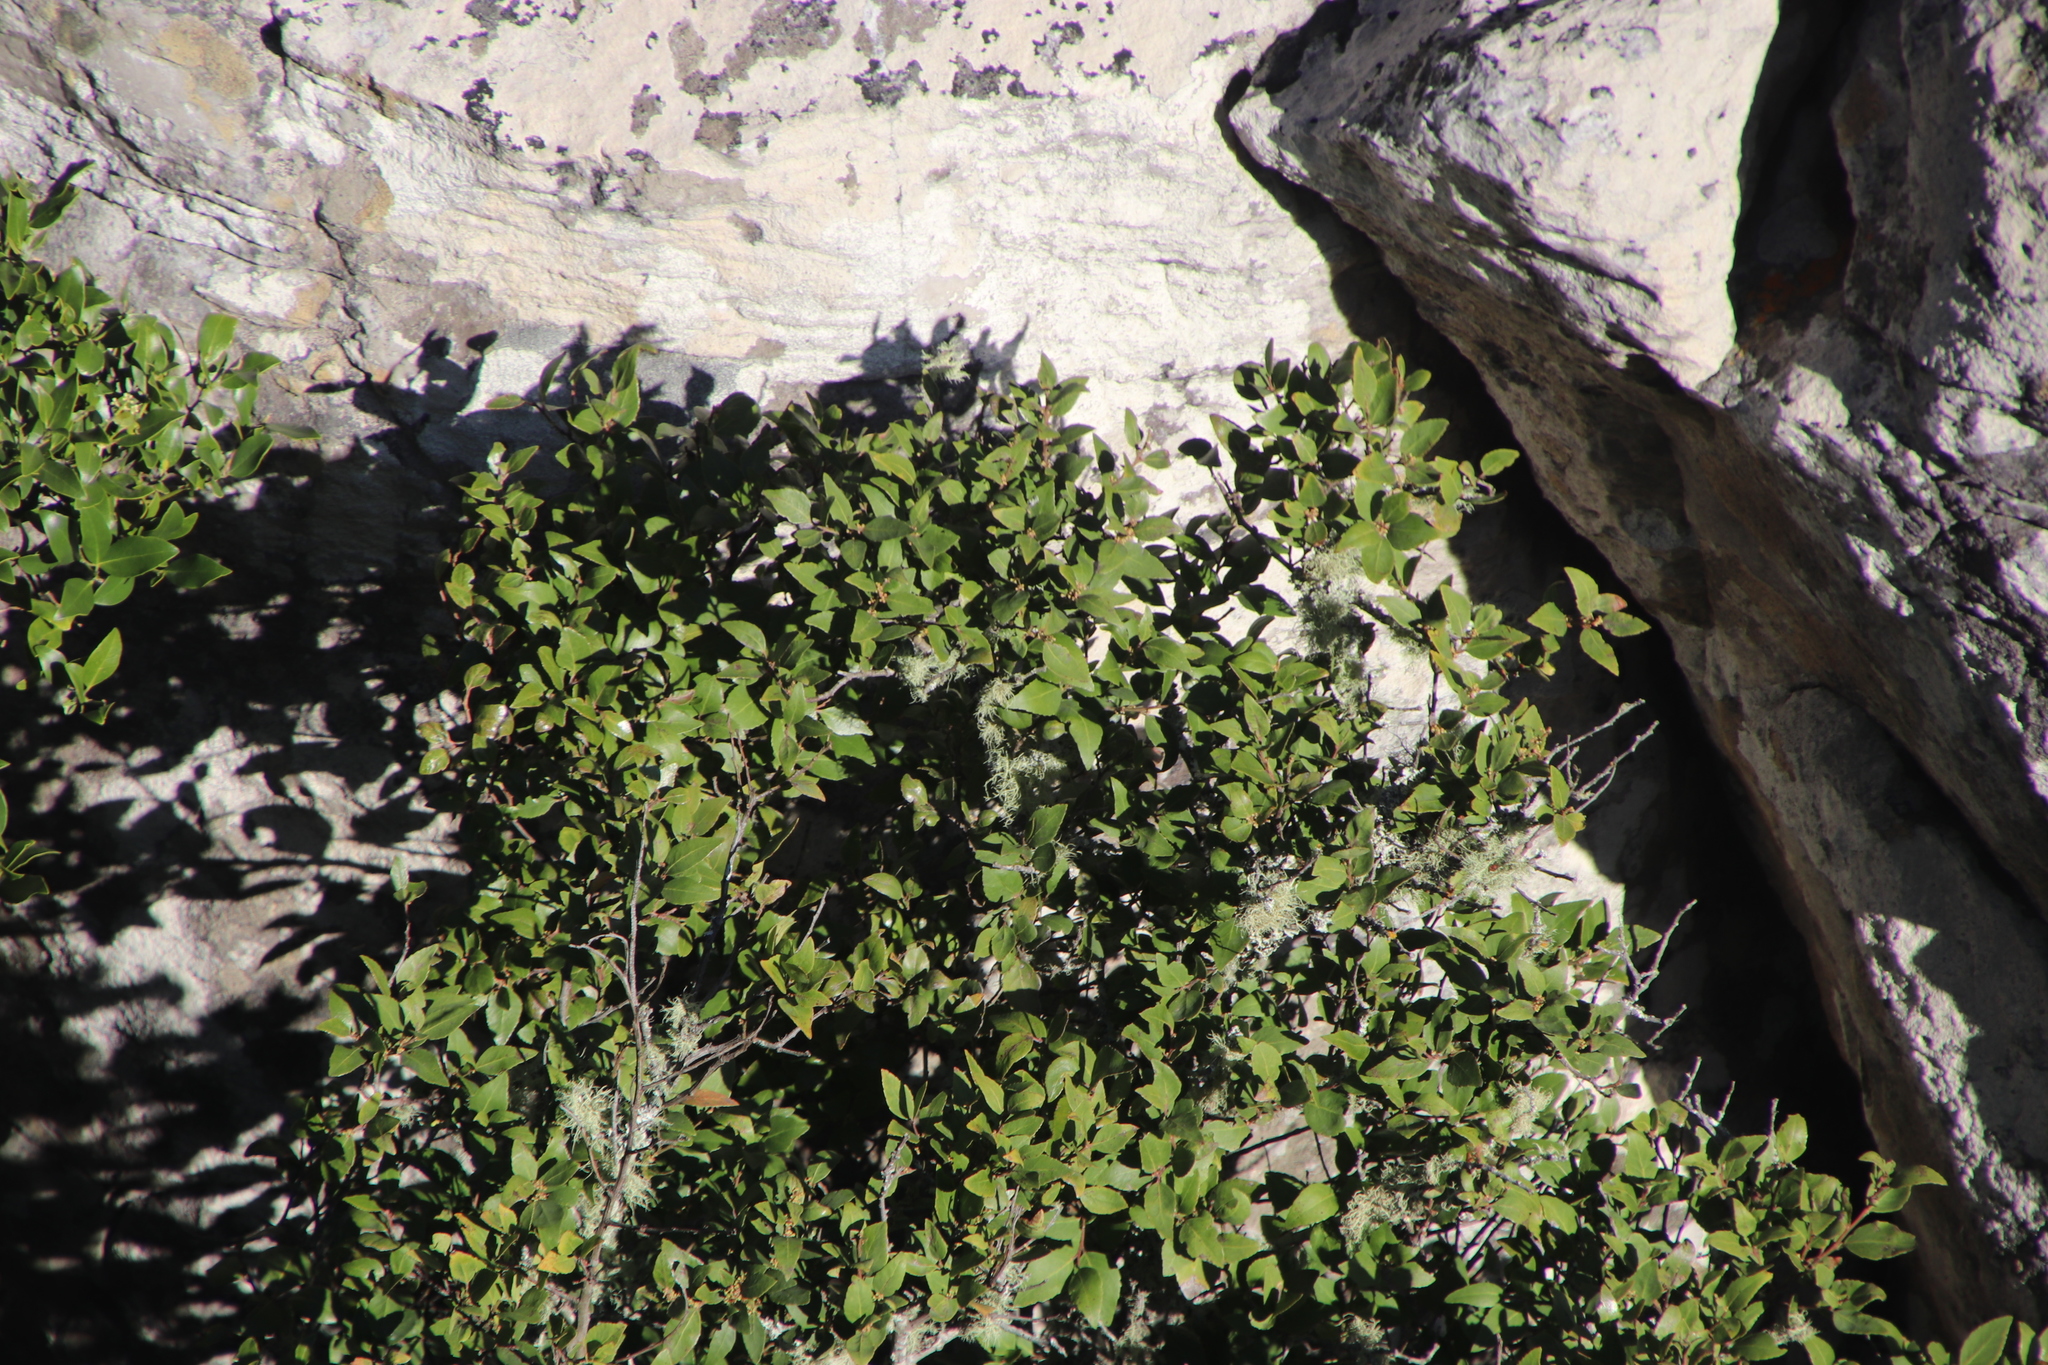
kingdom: Plantae
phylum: Tracheophyta
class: Magnoliopsida
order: Celastrales
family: Celastraceae
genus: Gymnosporia
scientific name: Gymnosporia acuminata
